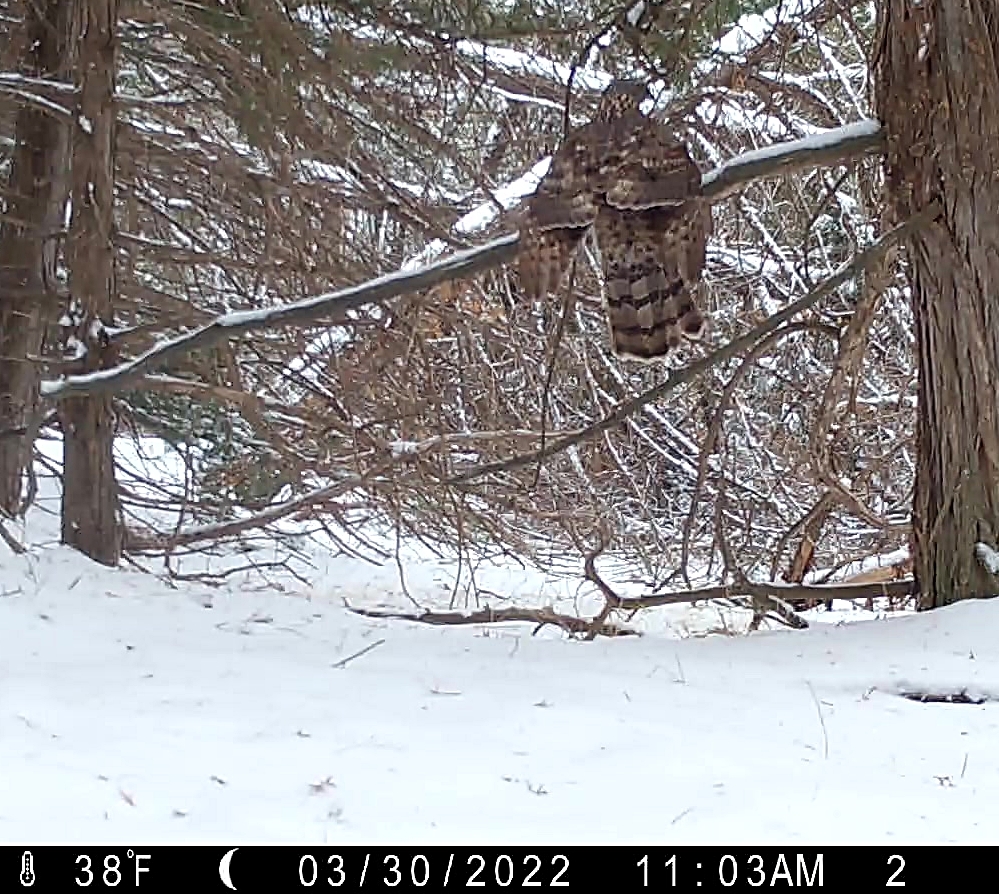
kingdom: Animalia
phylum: Chordata
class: Aves
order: Accipitriformes
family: Accipitridae
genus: Accipiter
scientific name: Accipiter gentilis
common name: Northern goshawk
